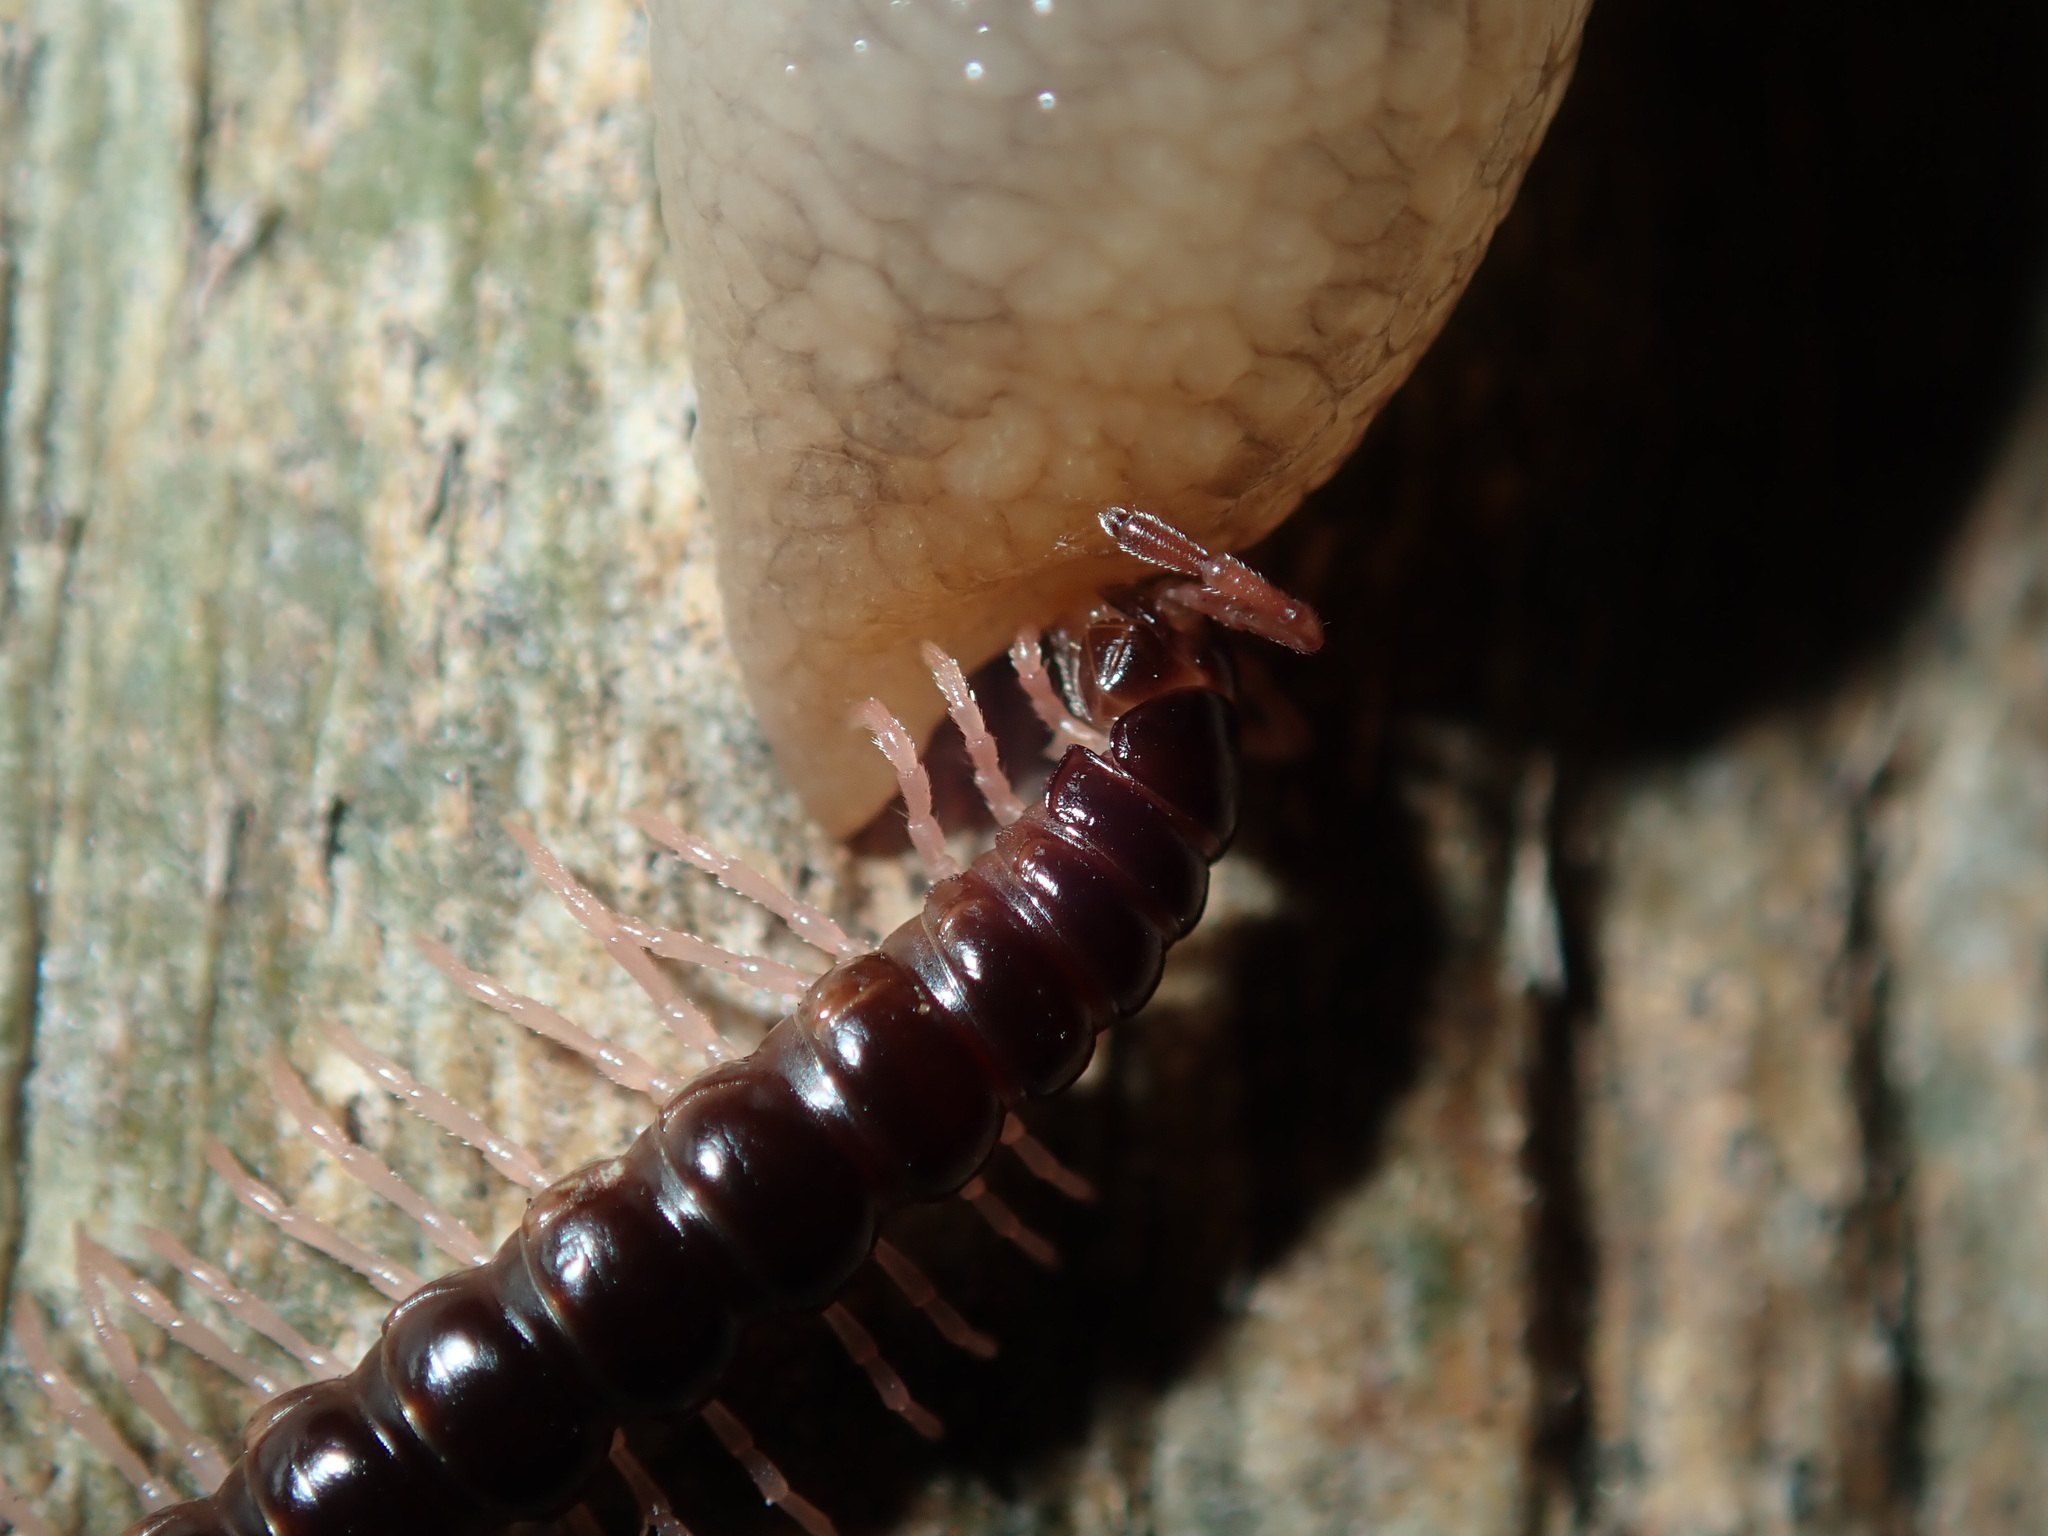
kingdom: Animalia
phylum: Arthropoda
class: Diplopoda
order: Polydesmida
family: Paradoxosomatidae
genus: Heterocladosoma
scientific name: Heterocladosoma
